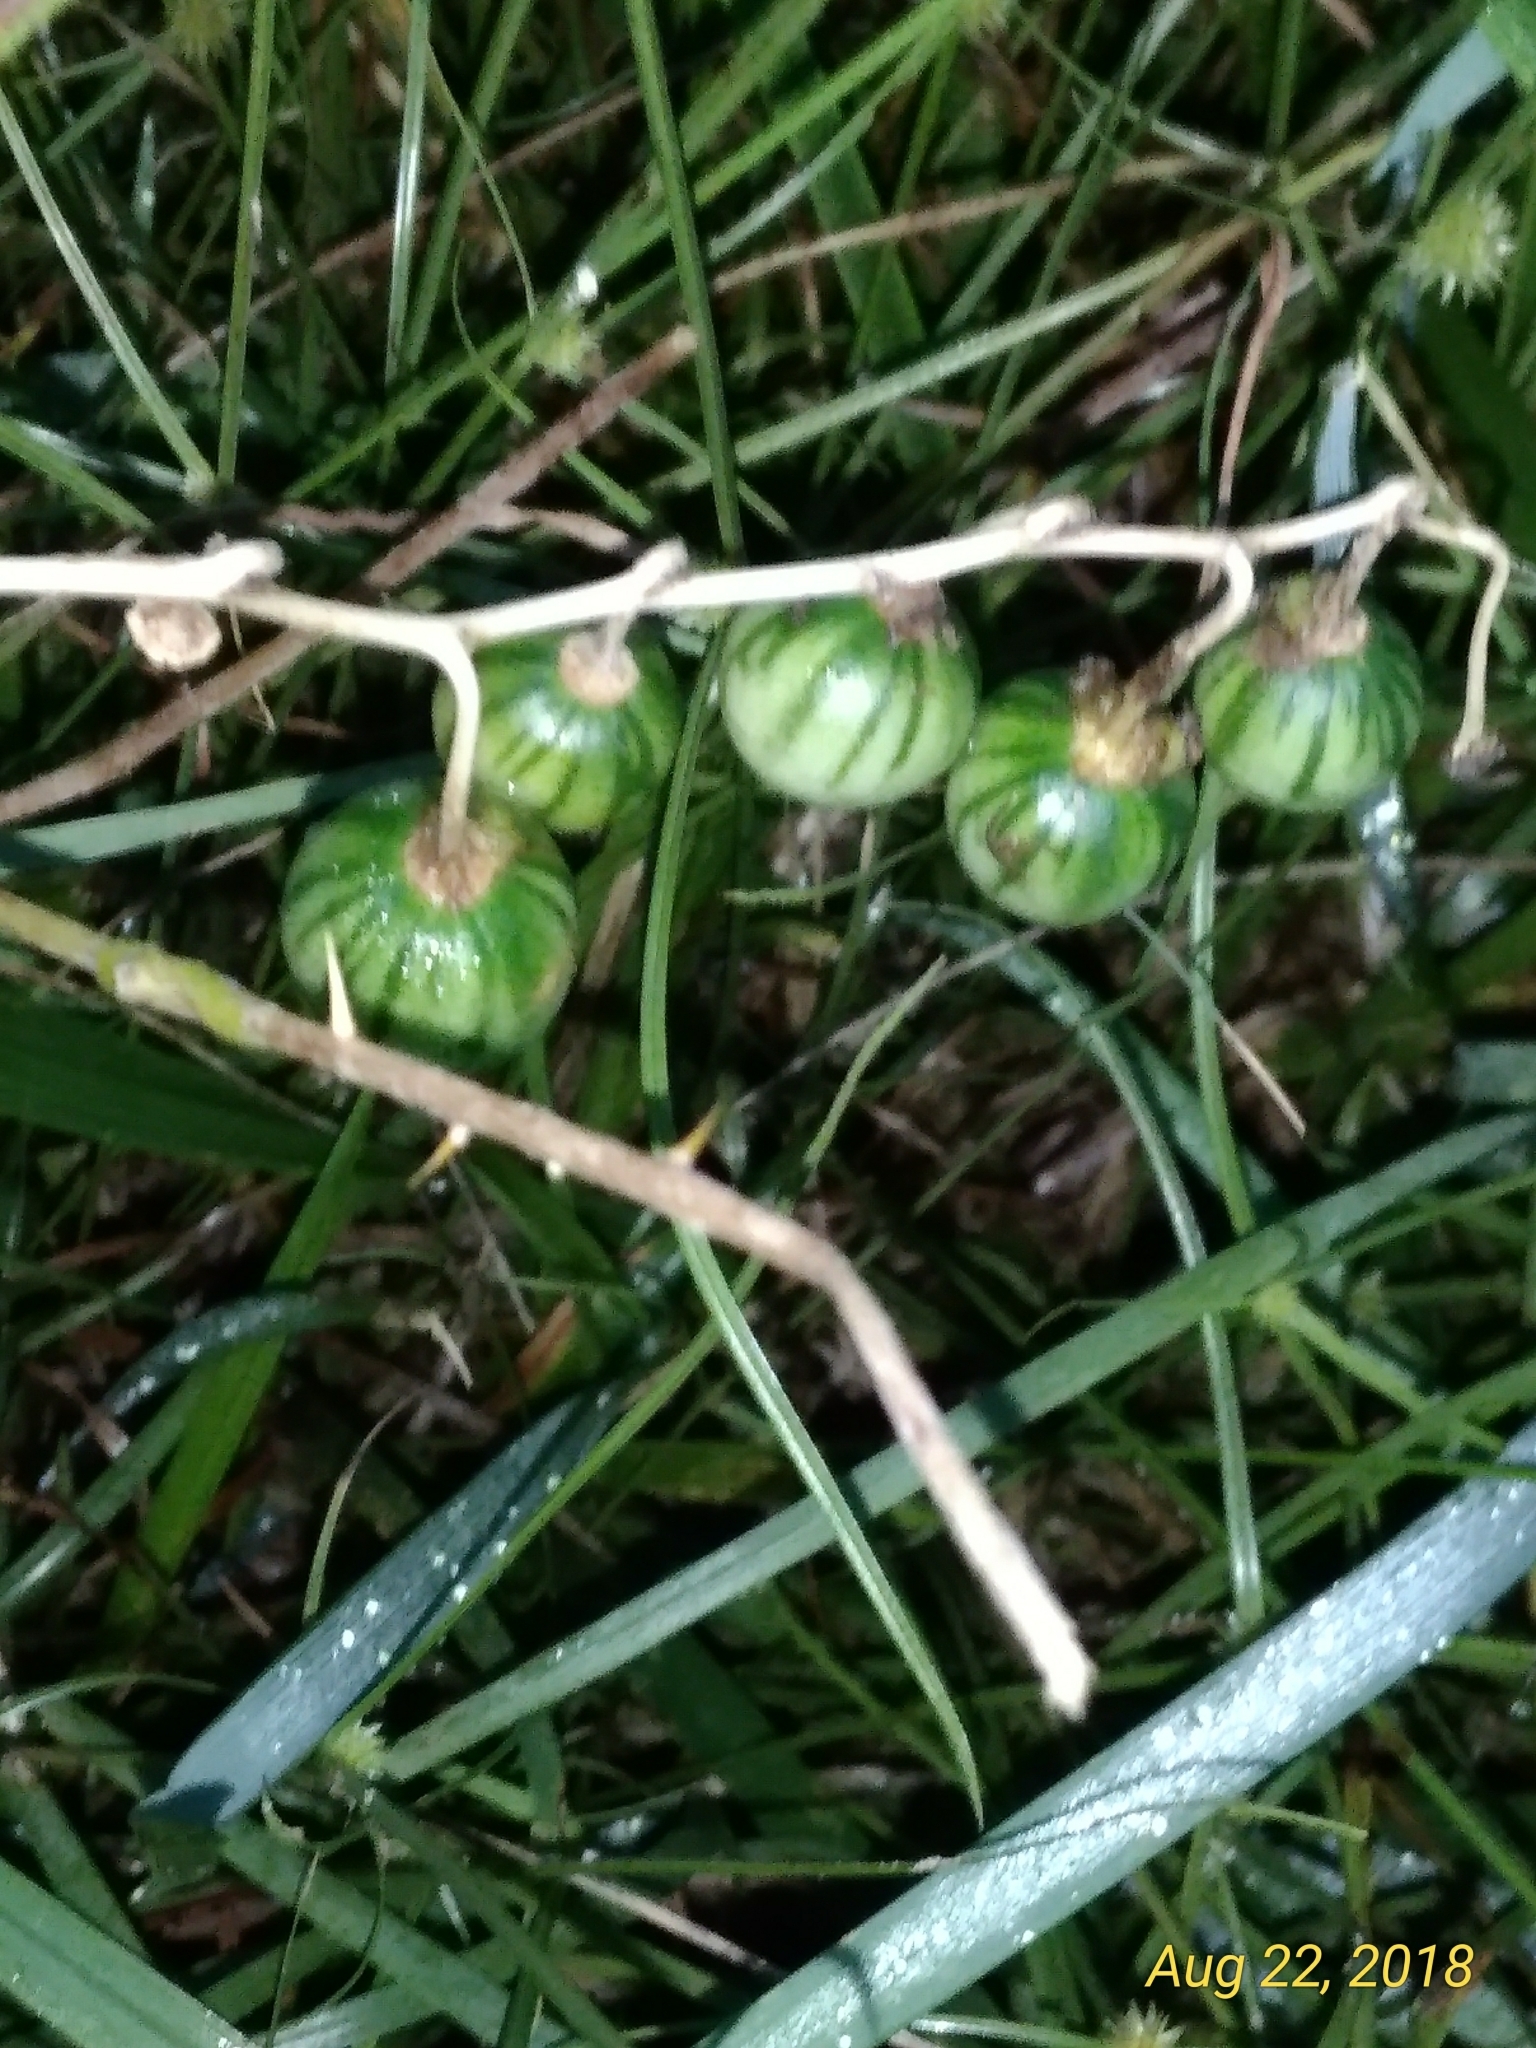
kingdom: Plantae
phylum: Tracheophyta
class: Magnoliopsida
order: Solanales
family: Solanaceae
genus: Solanum
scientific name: Solanum carolinense
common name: Horse-nettle
